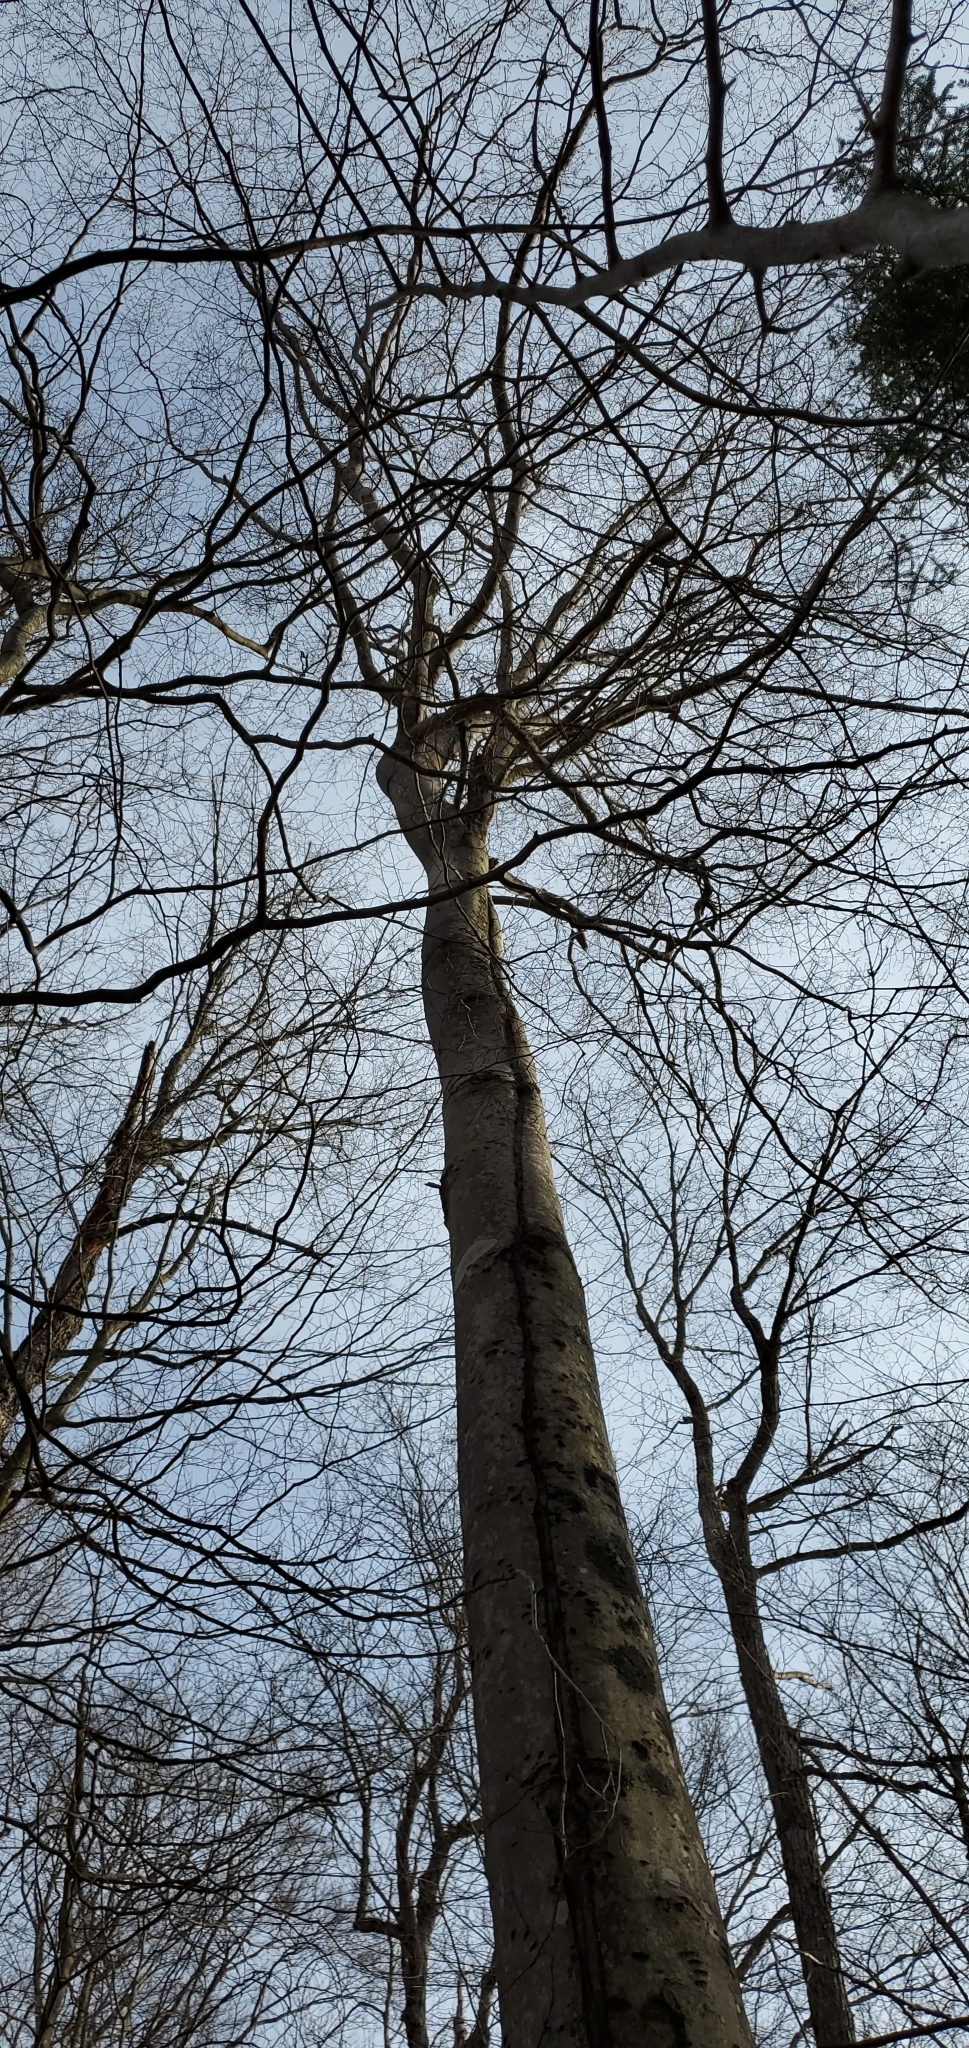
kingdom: Plantae
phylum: Tracheophyta
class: Magnoliopsida
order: Fagales
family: Fagaceae
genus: Fagus
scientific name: Fagus grandifolia
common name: American beech
